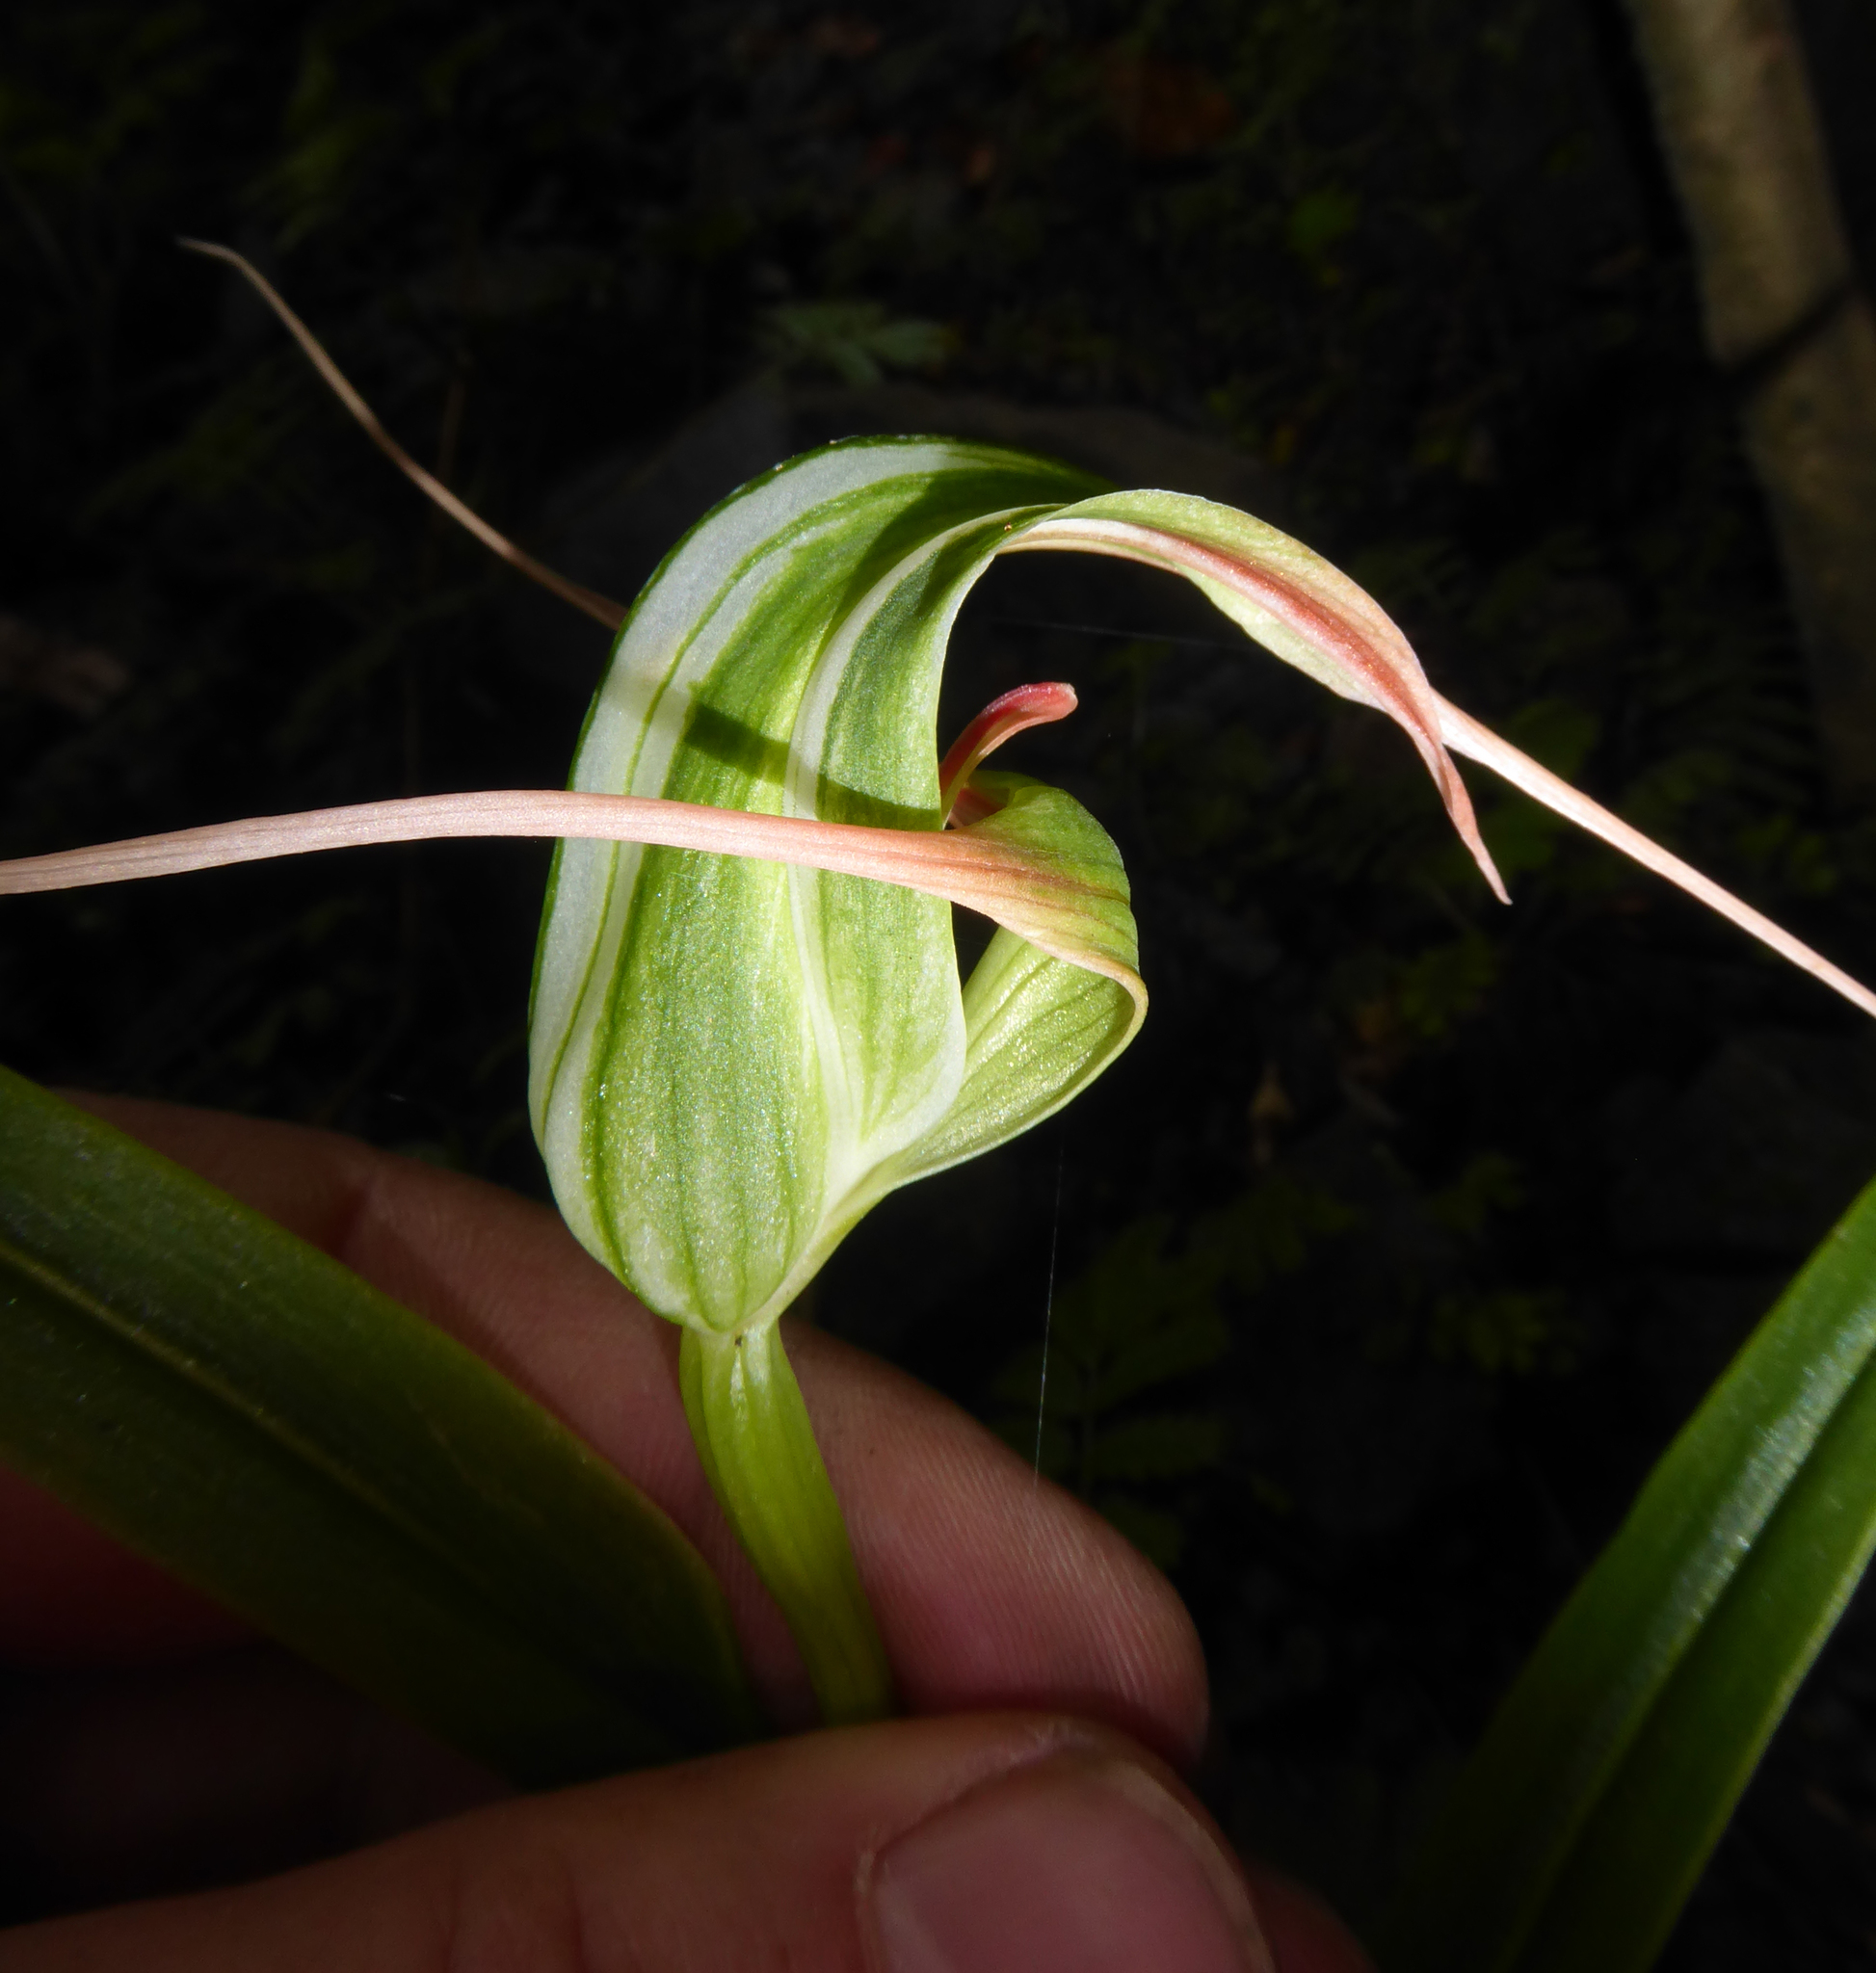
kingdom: Plantae
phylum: Tracheophyta
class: Liliopsida
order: Asparagales
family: Orchidaceae
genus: Pterostylis
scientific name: Pterostylis banksii
